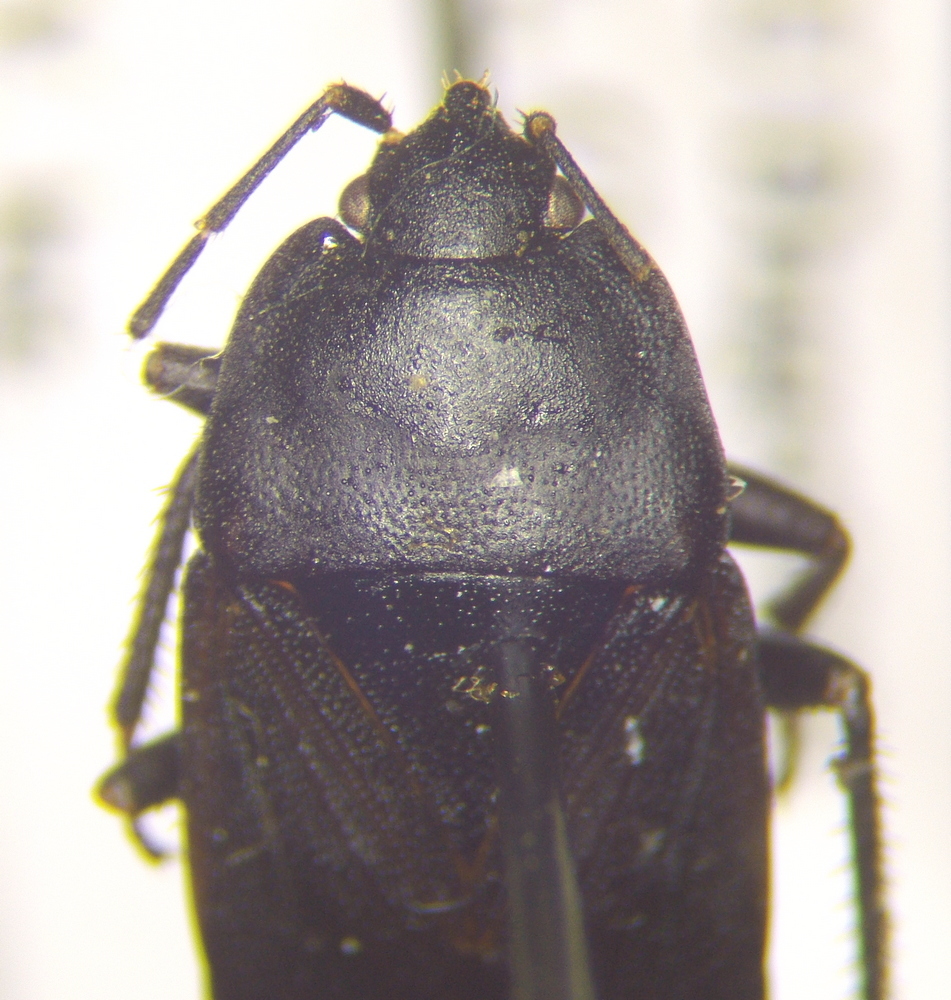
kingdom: Animalia
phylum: Arthropoda
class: Insecta
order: Hemiptera
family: Rhyparochromidae
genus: Aellopus
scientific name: Aellopus atratus
